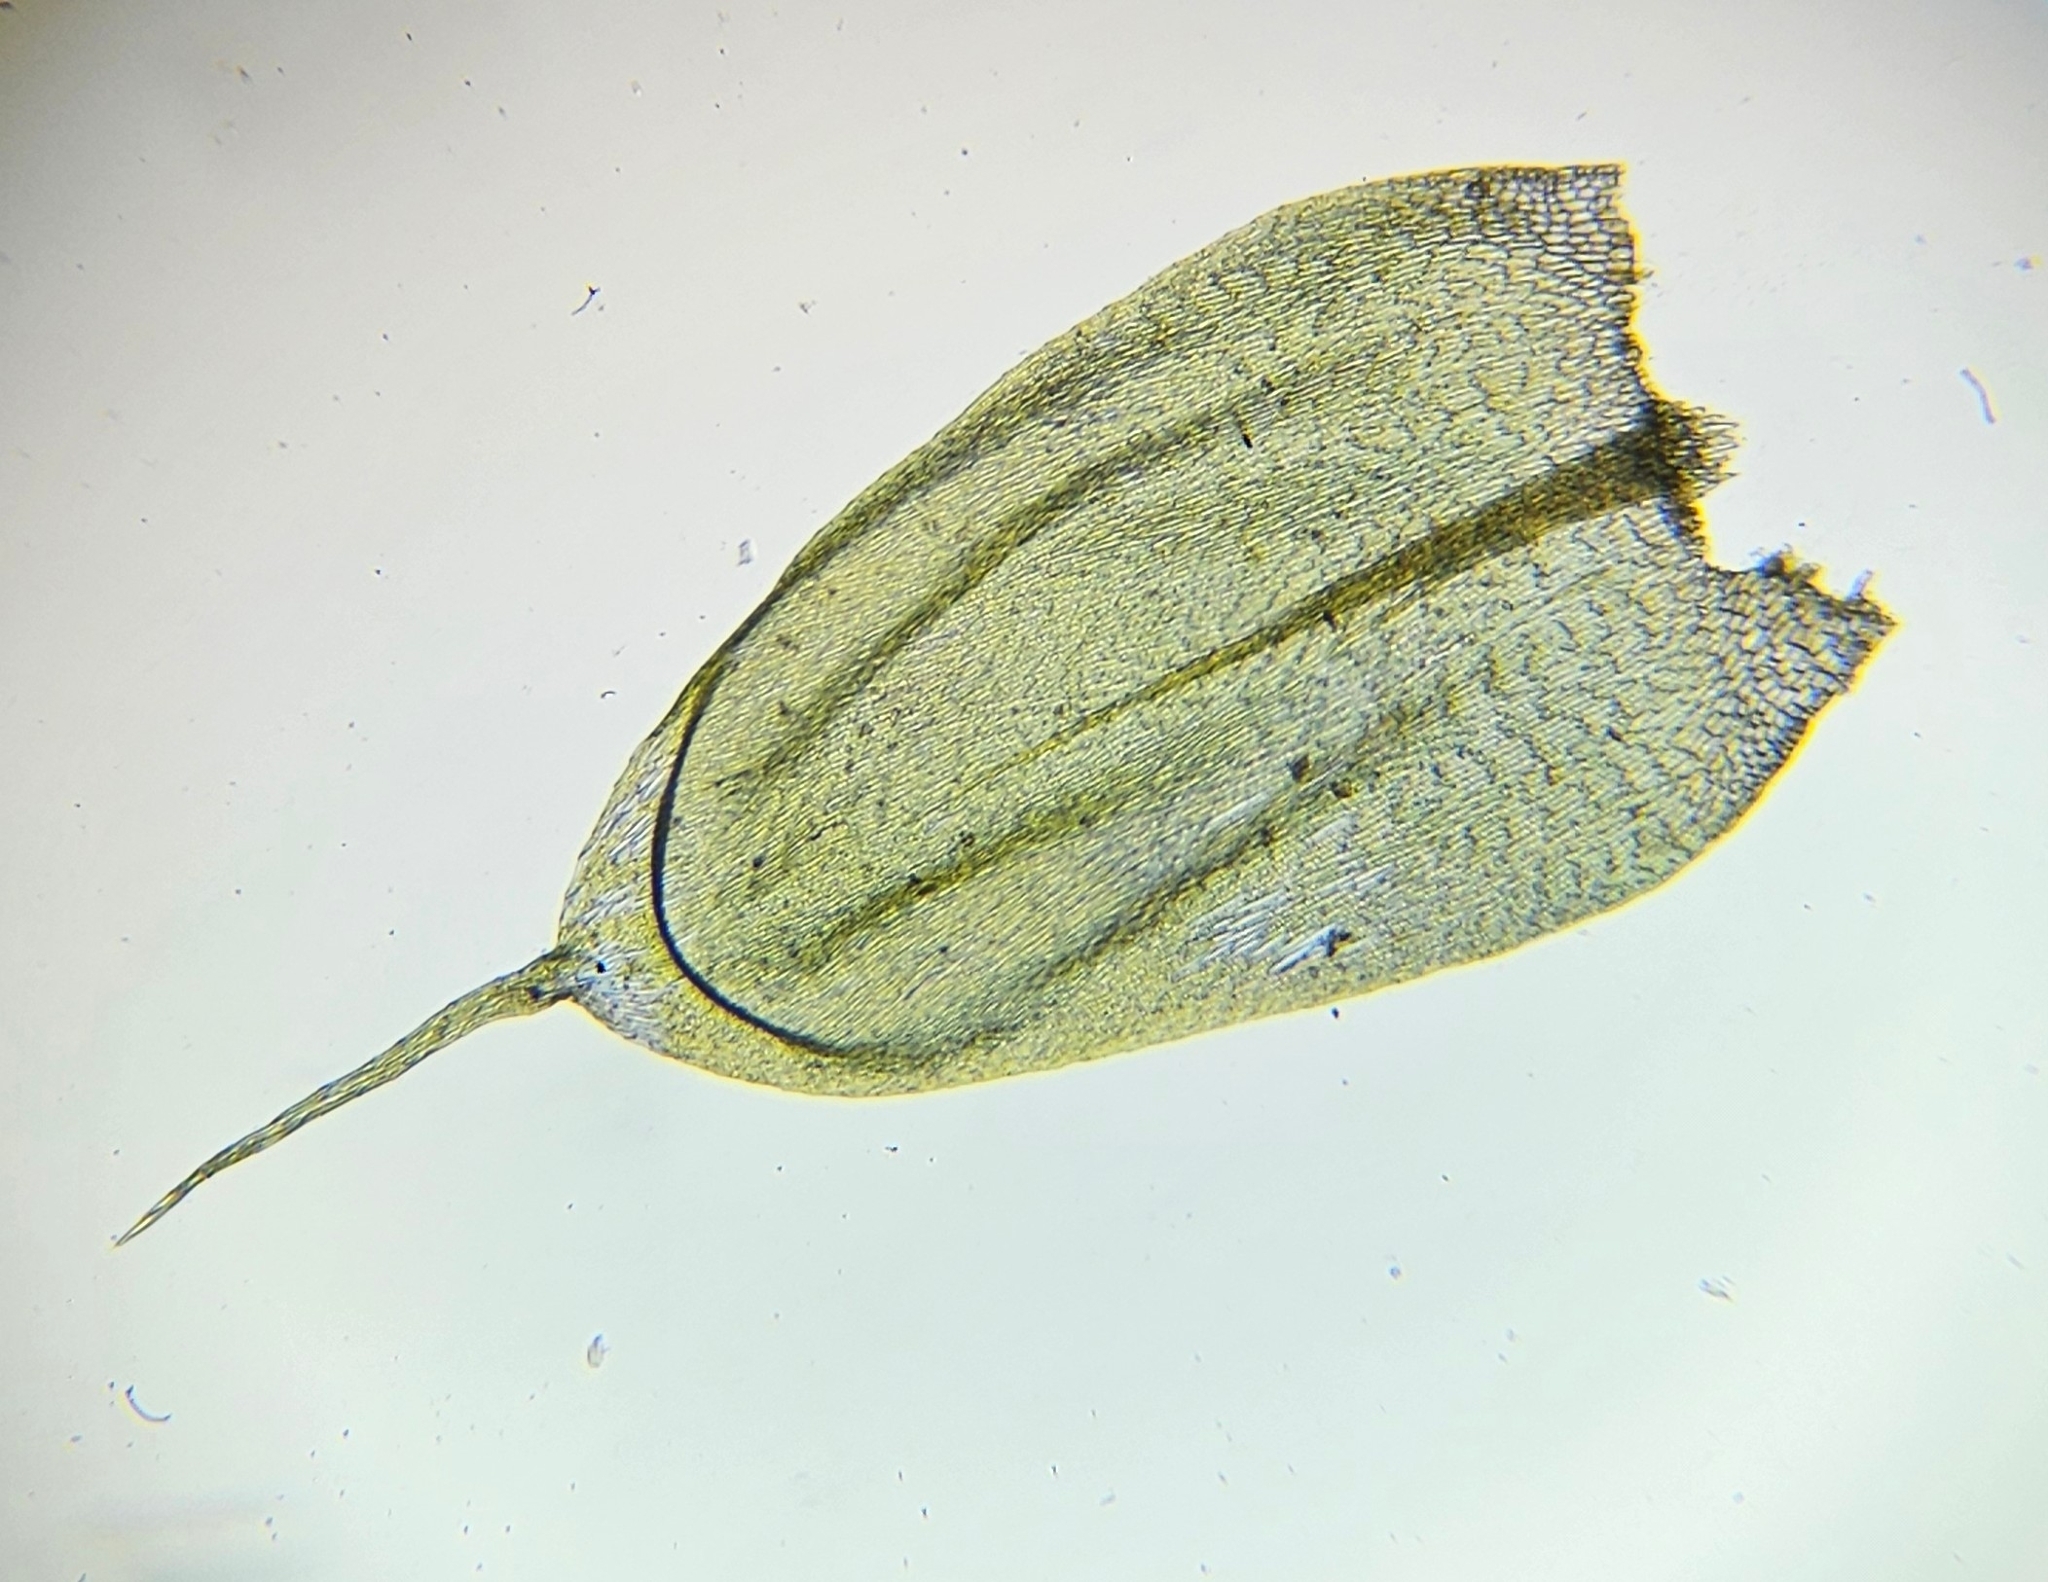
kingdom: Plantae
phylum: Bryophyta
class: Bryopsida
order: Hypnales
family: Brachytheciaceae
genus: Cirriphyllum
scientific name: Cirriphyllum piliferum
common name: Hair-pointed moss
